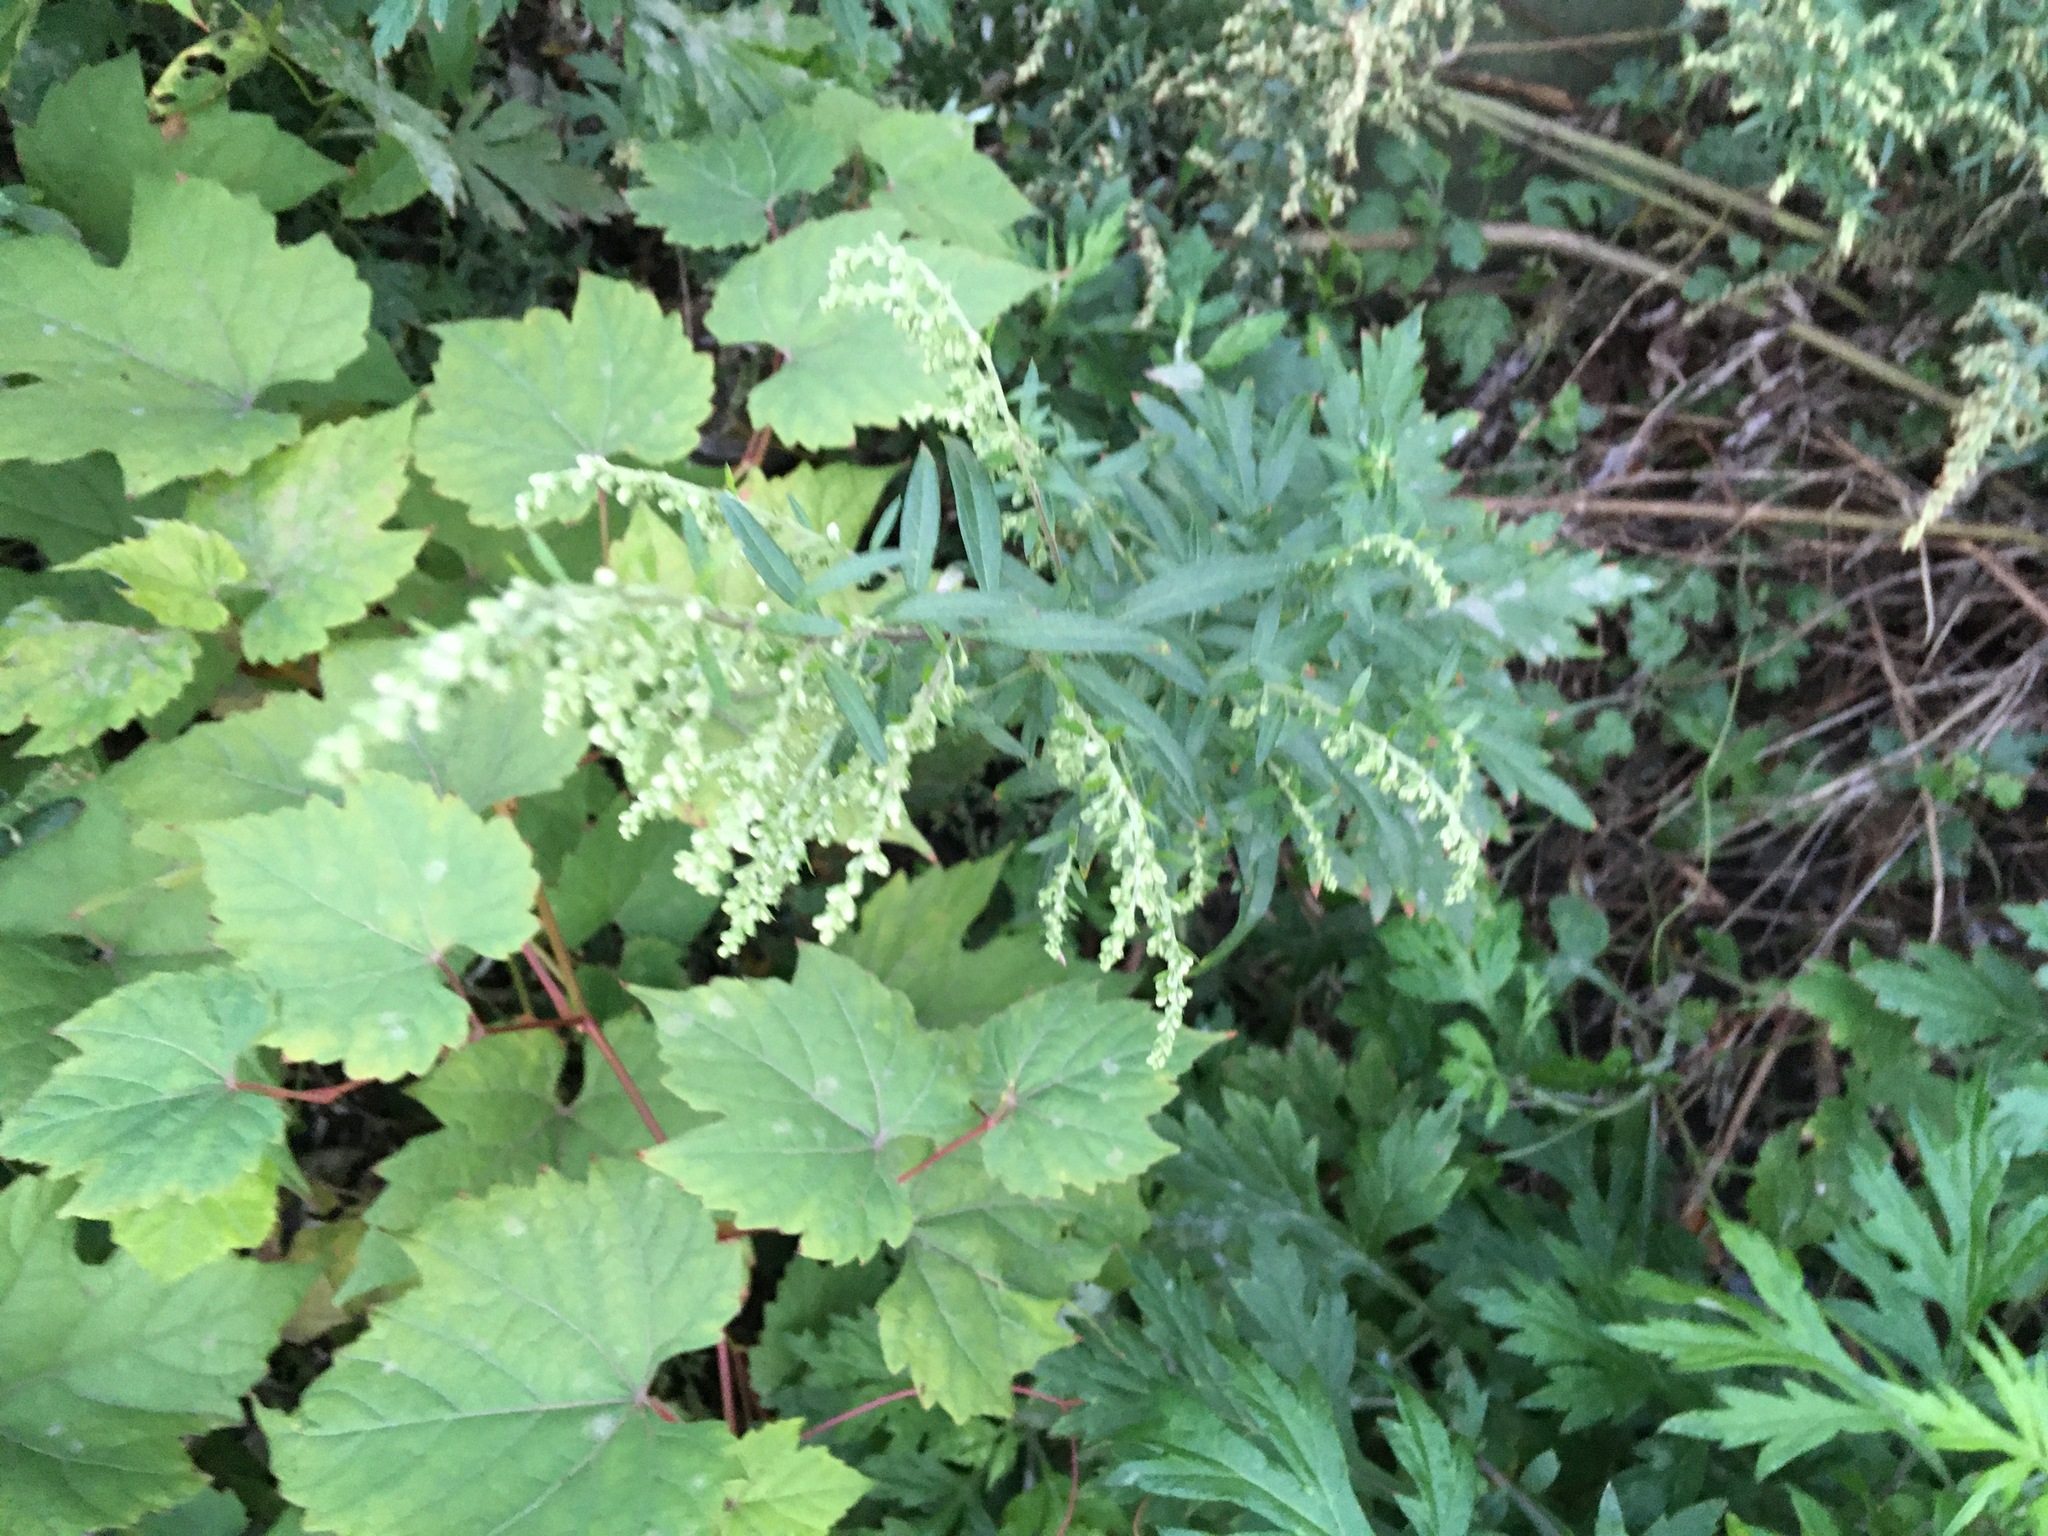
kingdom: Plantae
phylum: Tracheophyta
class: Magnoliopsida
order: Asterales
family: Asteraceae
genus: Artemisia
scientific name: Artemisia vulgaris
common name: Mugwort
